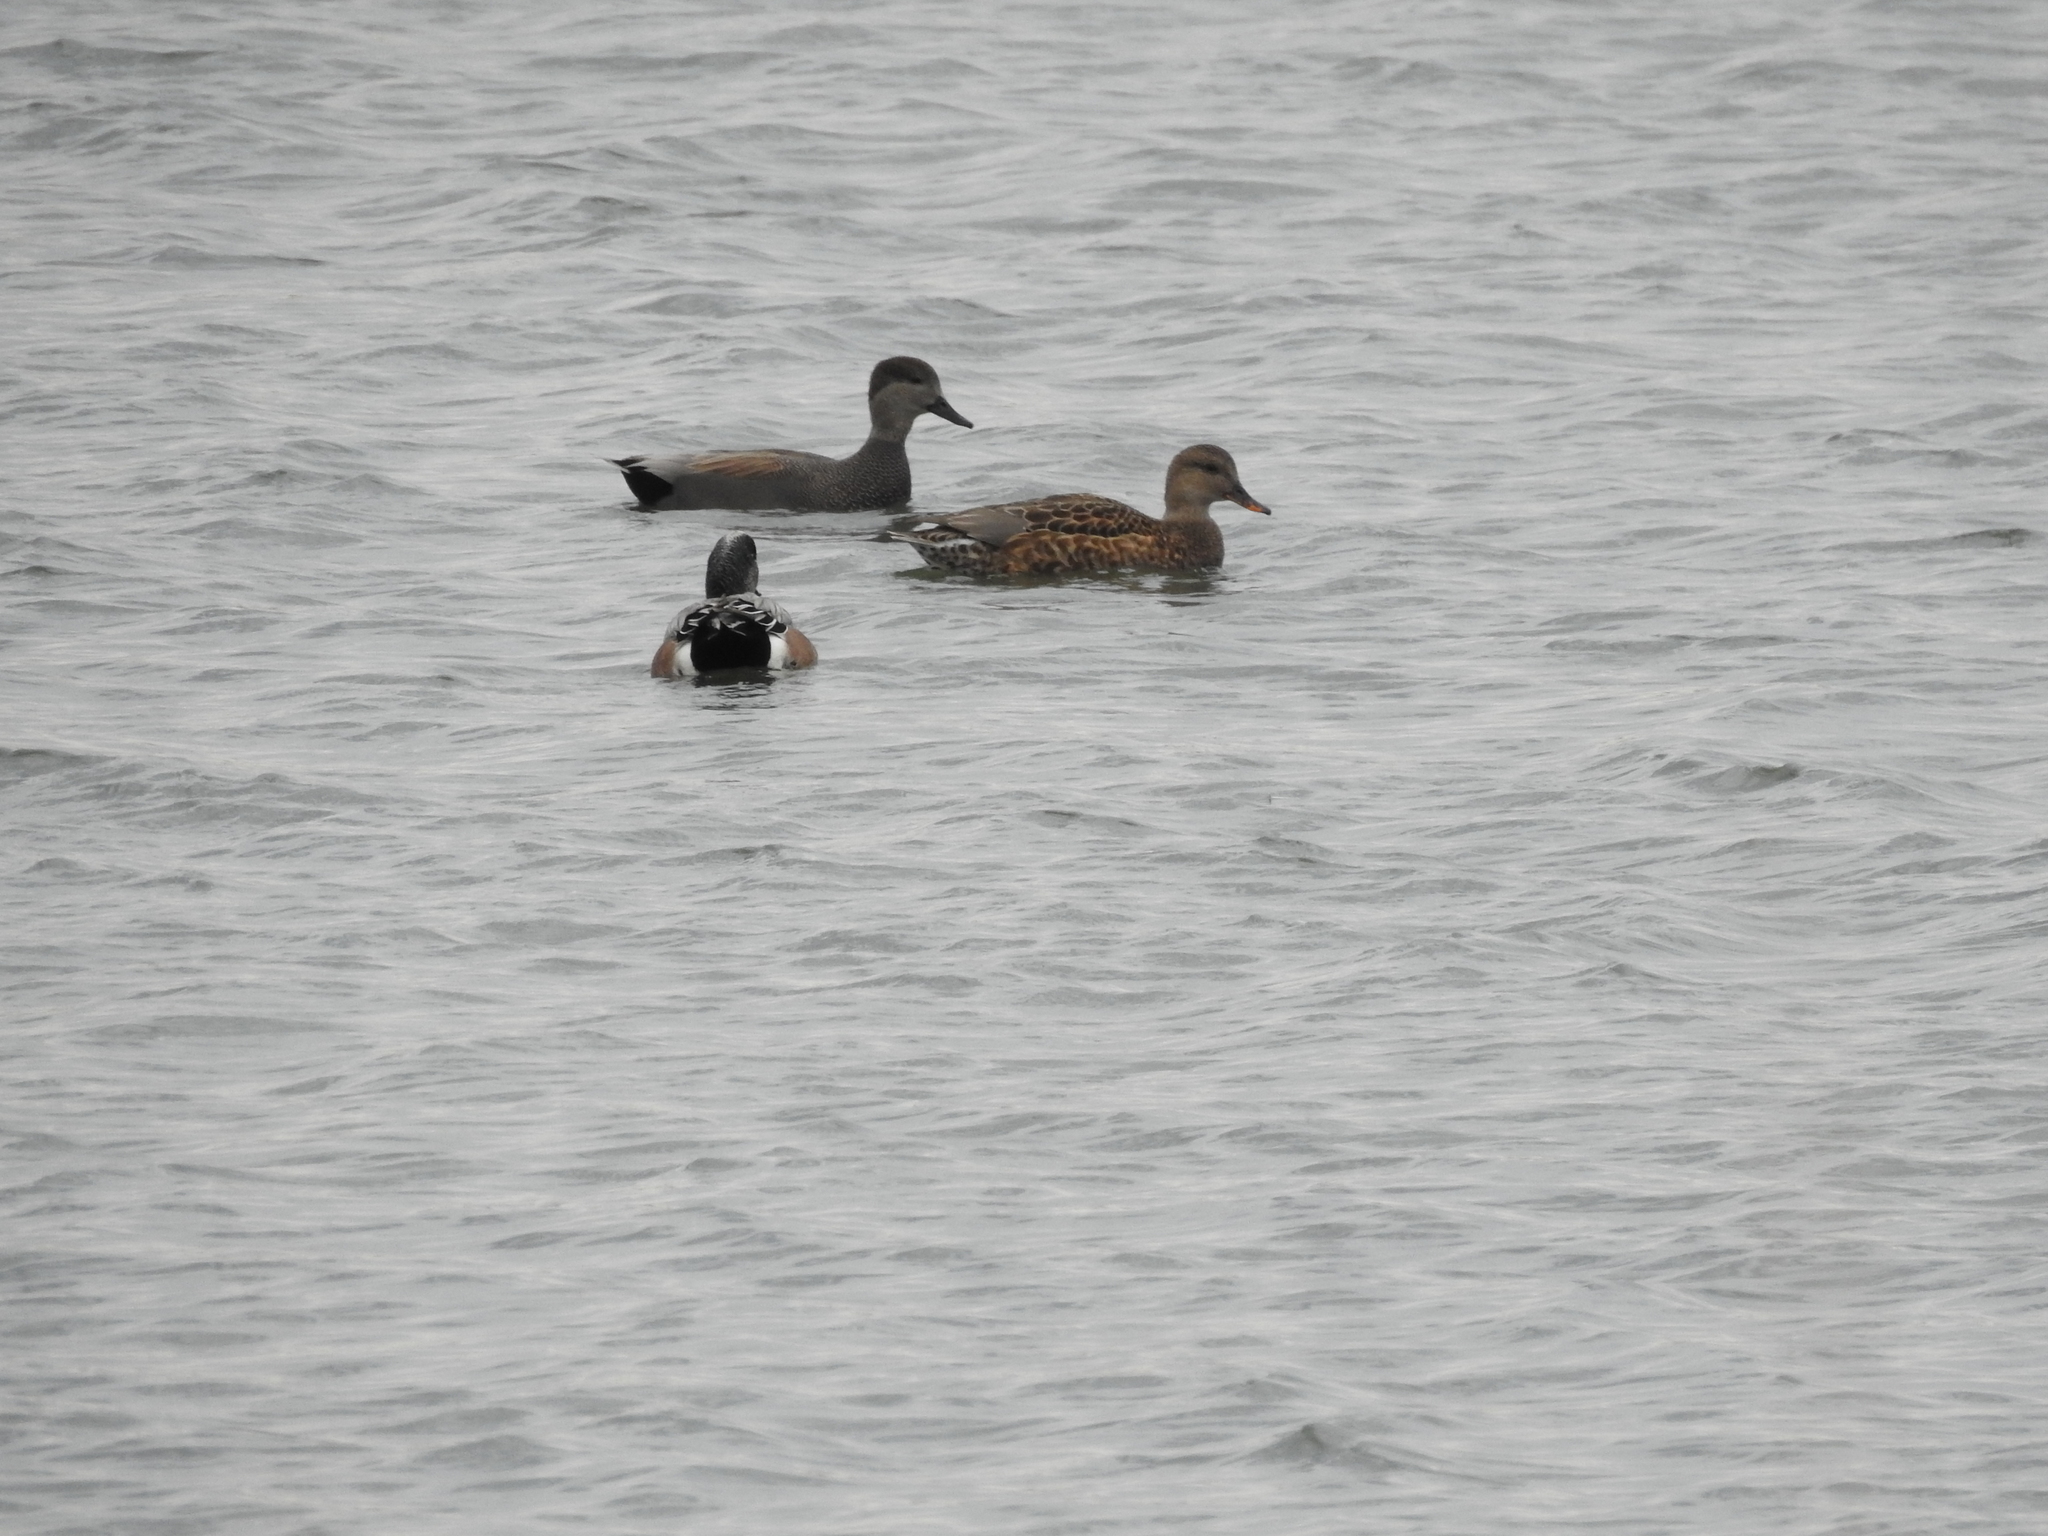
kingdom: Animalia
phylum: Chordata
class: Aves
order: Anseriformes
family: Anatidae
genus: Mareca
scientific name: Mareca strepera
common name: Gadwall
